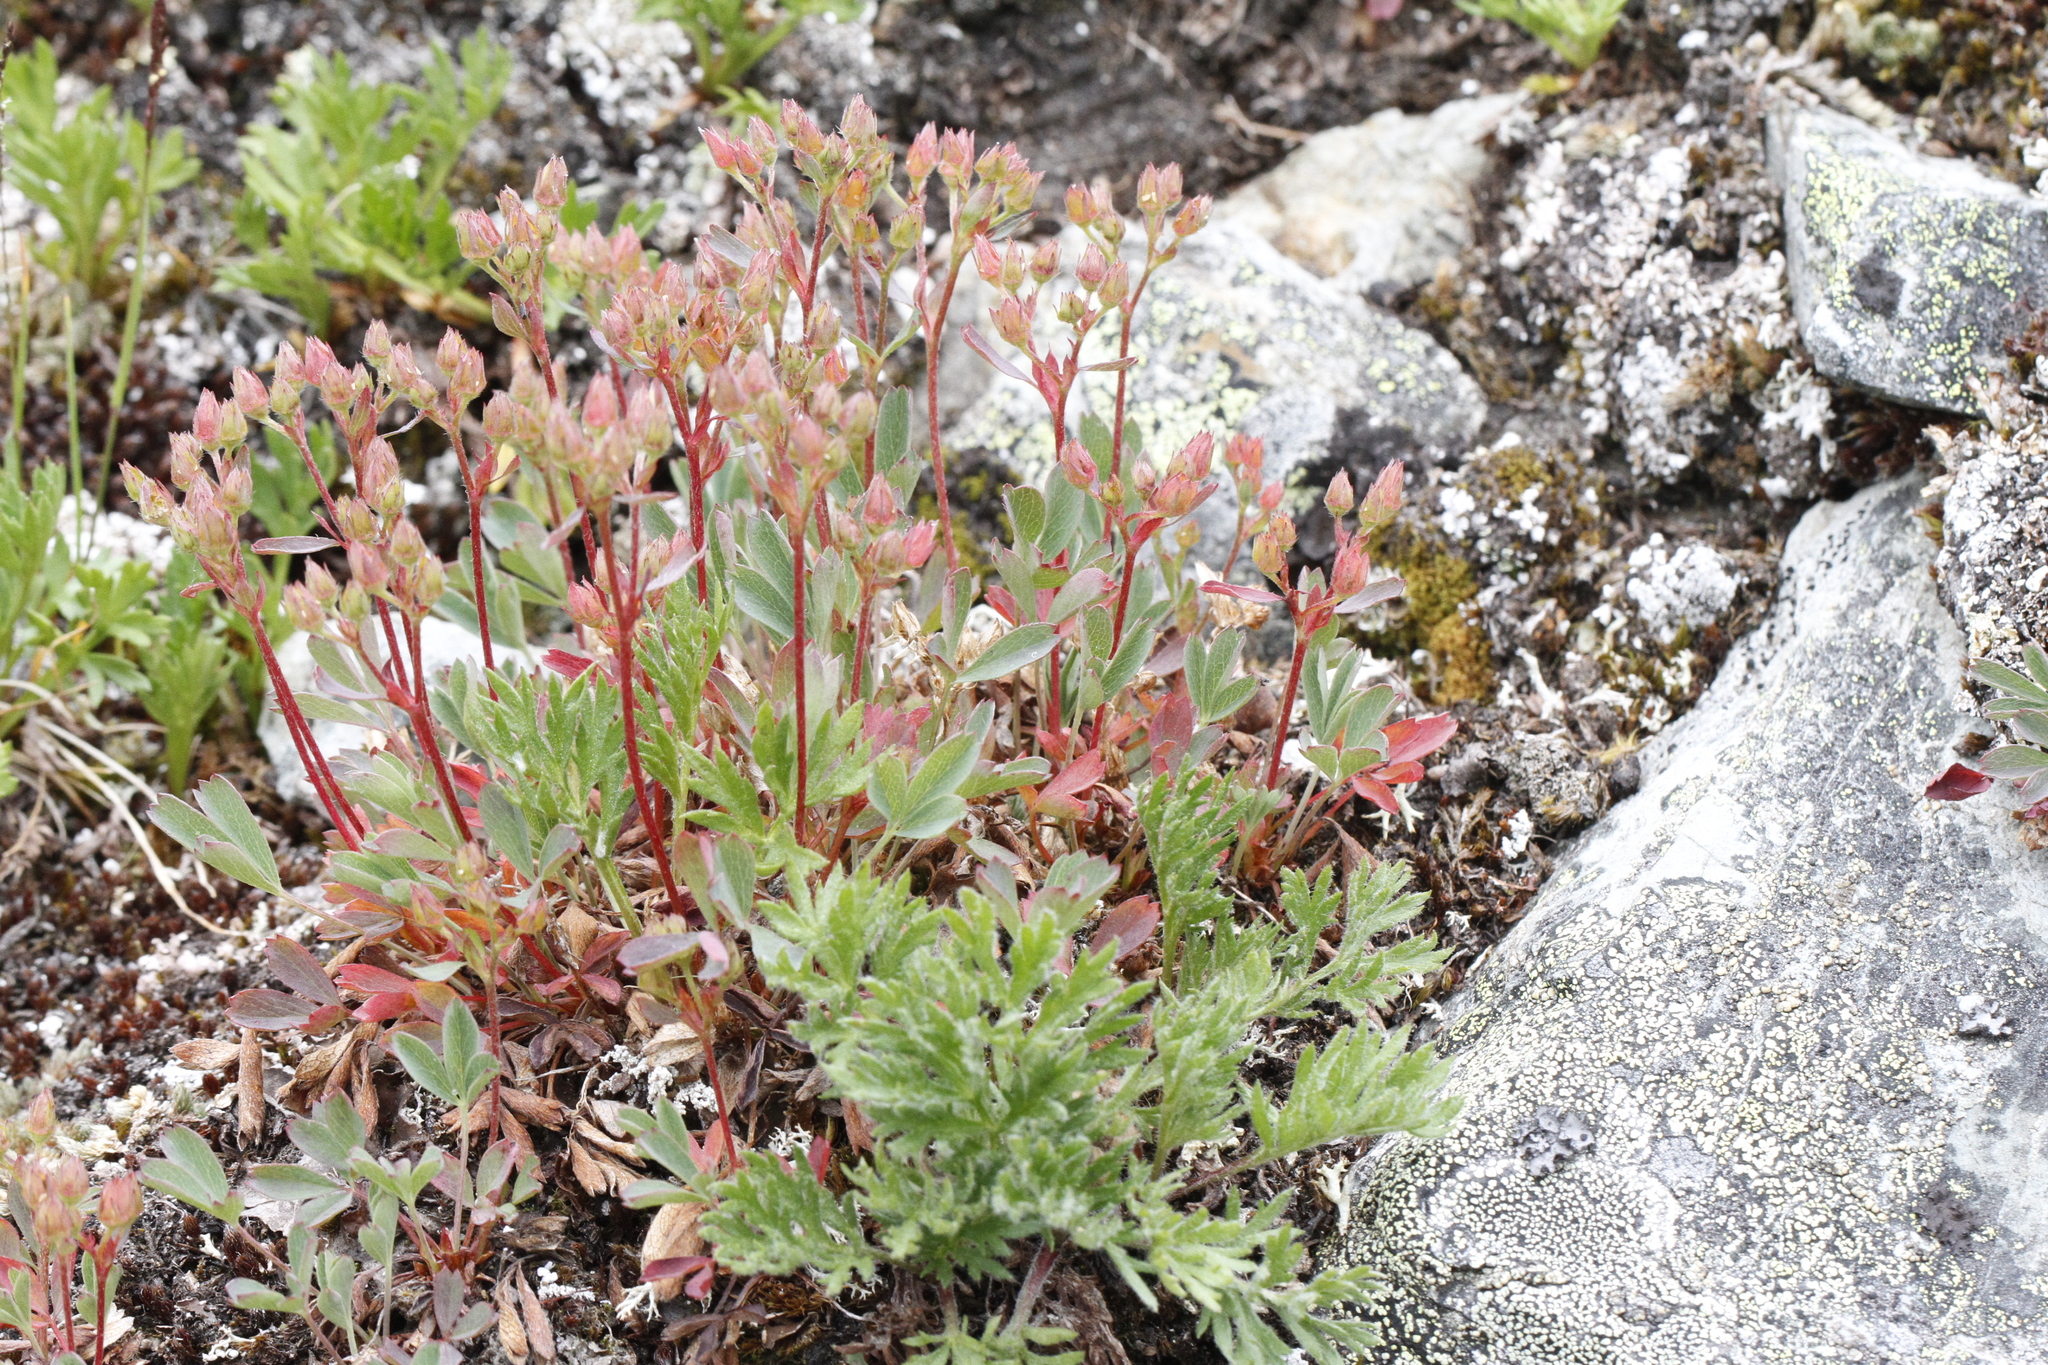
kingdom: Plantae
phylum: Tracheophyta
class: Magnoliopsida
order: Rosales
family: Rosaceae
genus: Sibbaldia
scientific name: Sibbaldia procumbens
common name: Creeping sibbaldia
